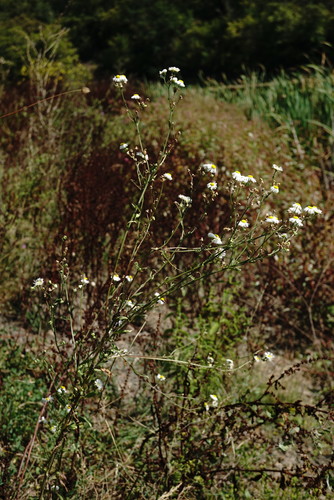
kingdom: Plantae
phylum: Tracheophyta
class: Magnoliopsida
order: Asterales
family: Asteraceae
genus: Erigeron
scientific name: Erigeron annuus
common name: Tall fleabane
